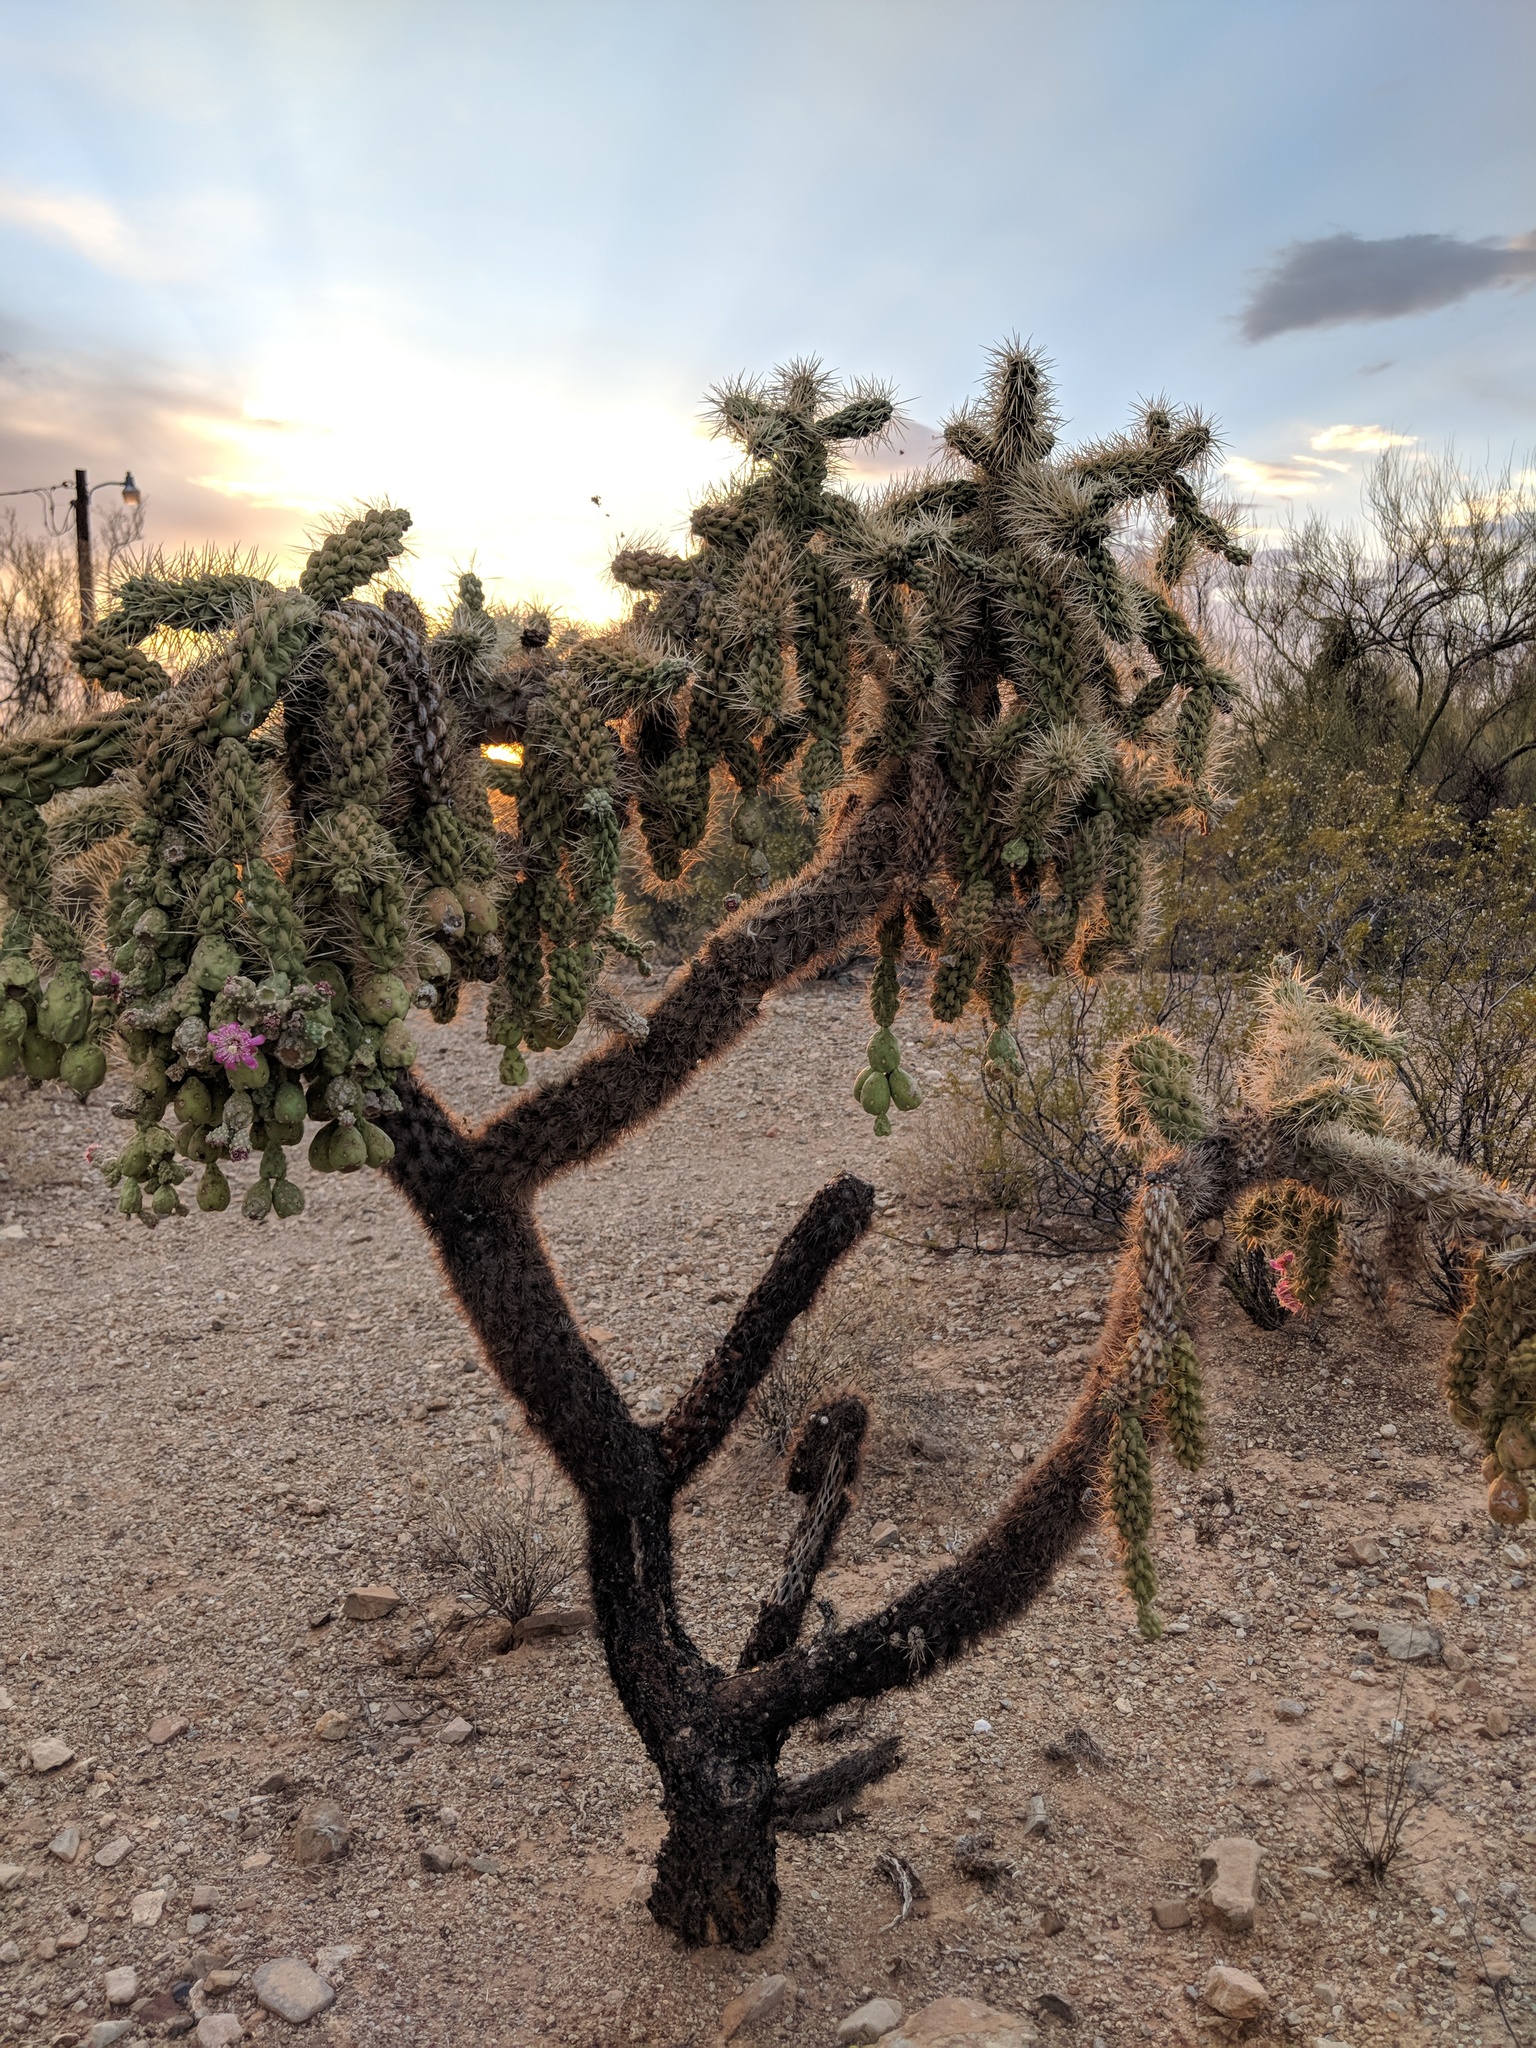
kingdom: Plantae
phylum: Tracheophyta
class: Magnoliopsida
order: Caryophyllales
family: Cactaceae
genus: Cylindropuntia
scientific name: Cylindropuntia fulgida
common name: Jumping cholla
